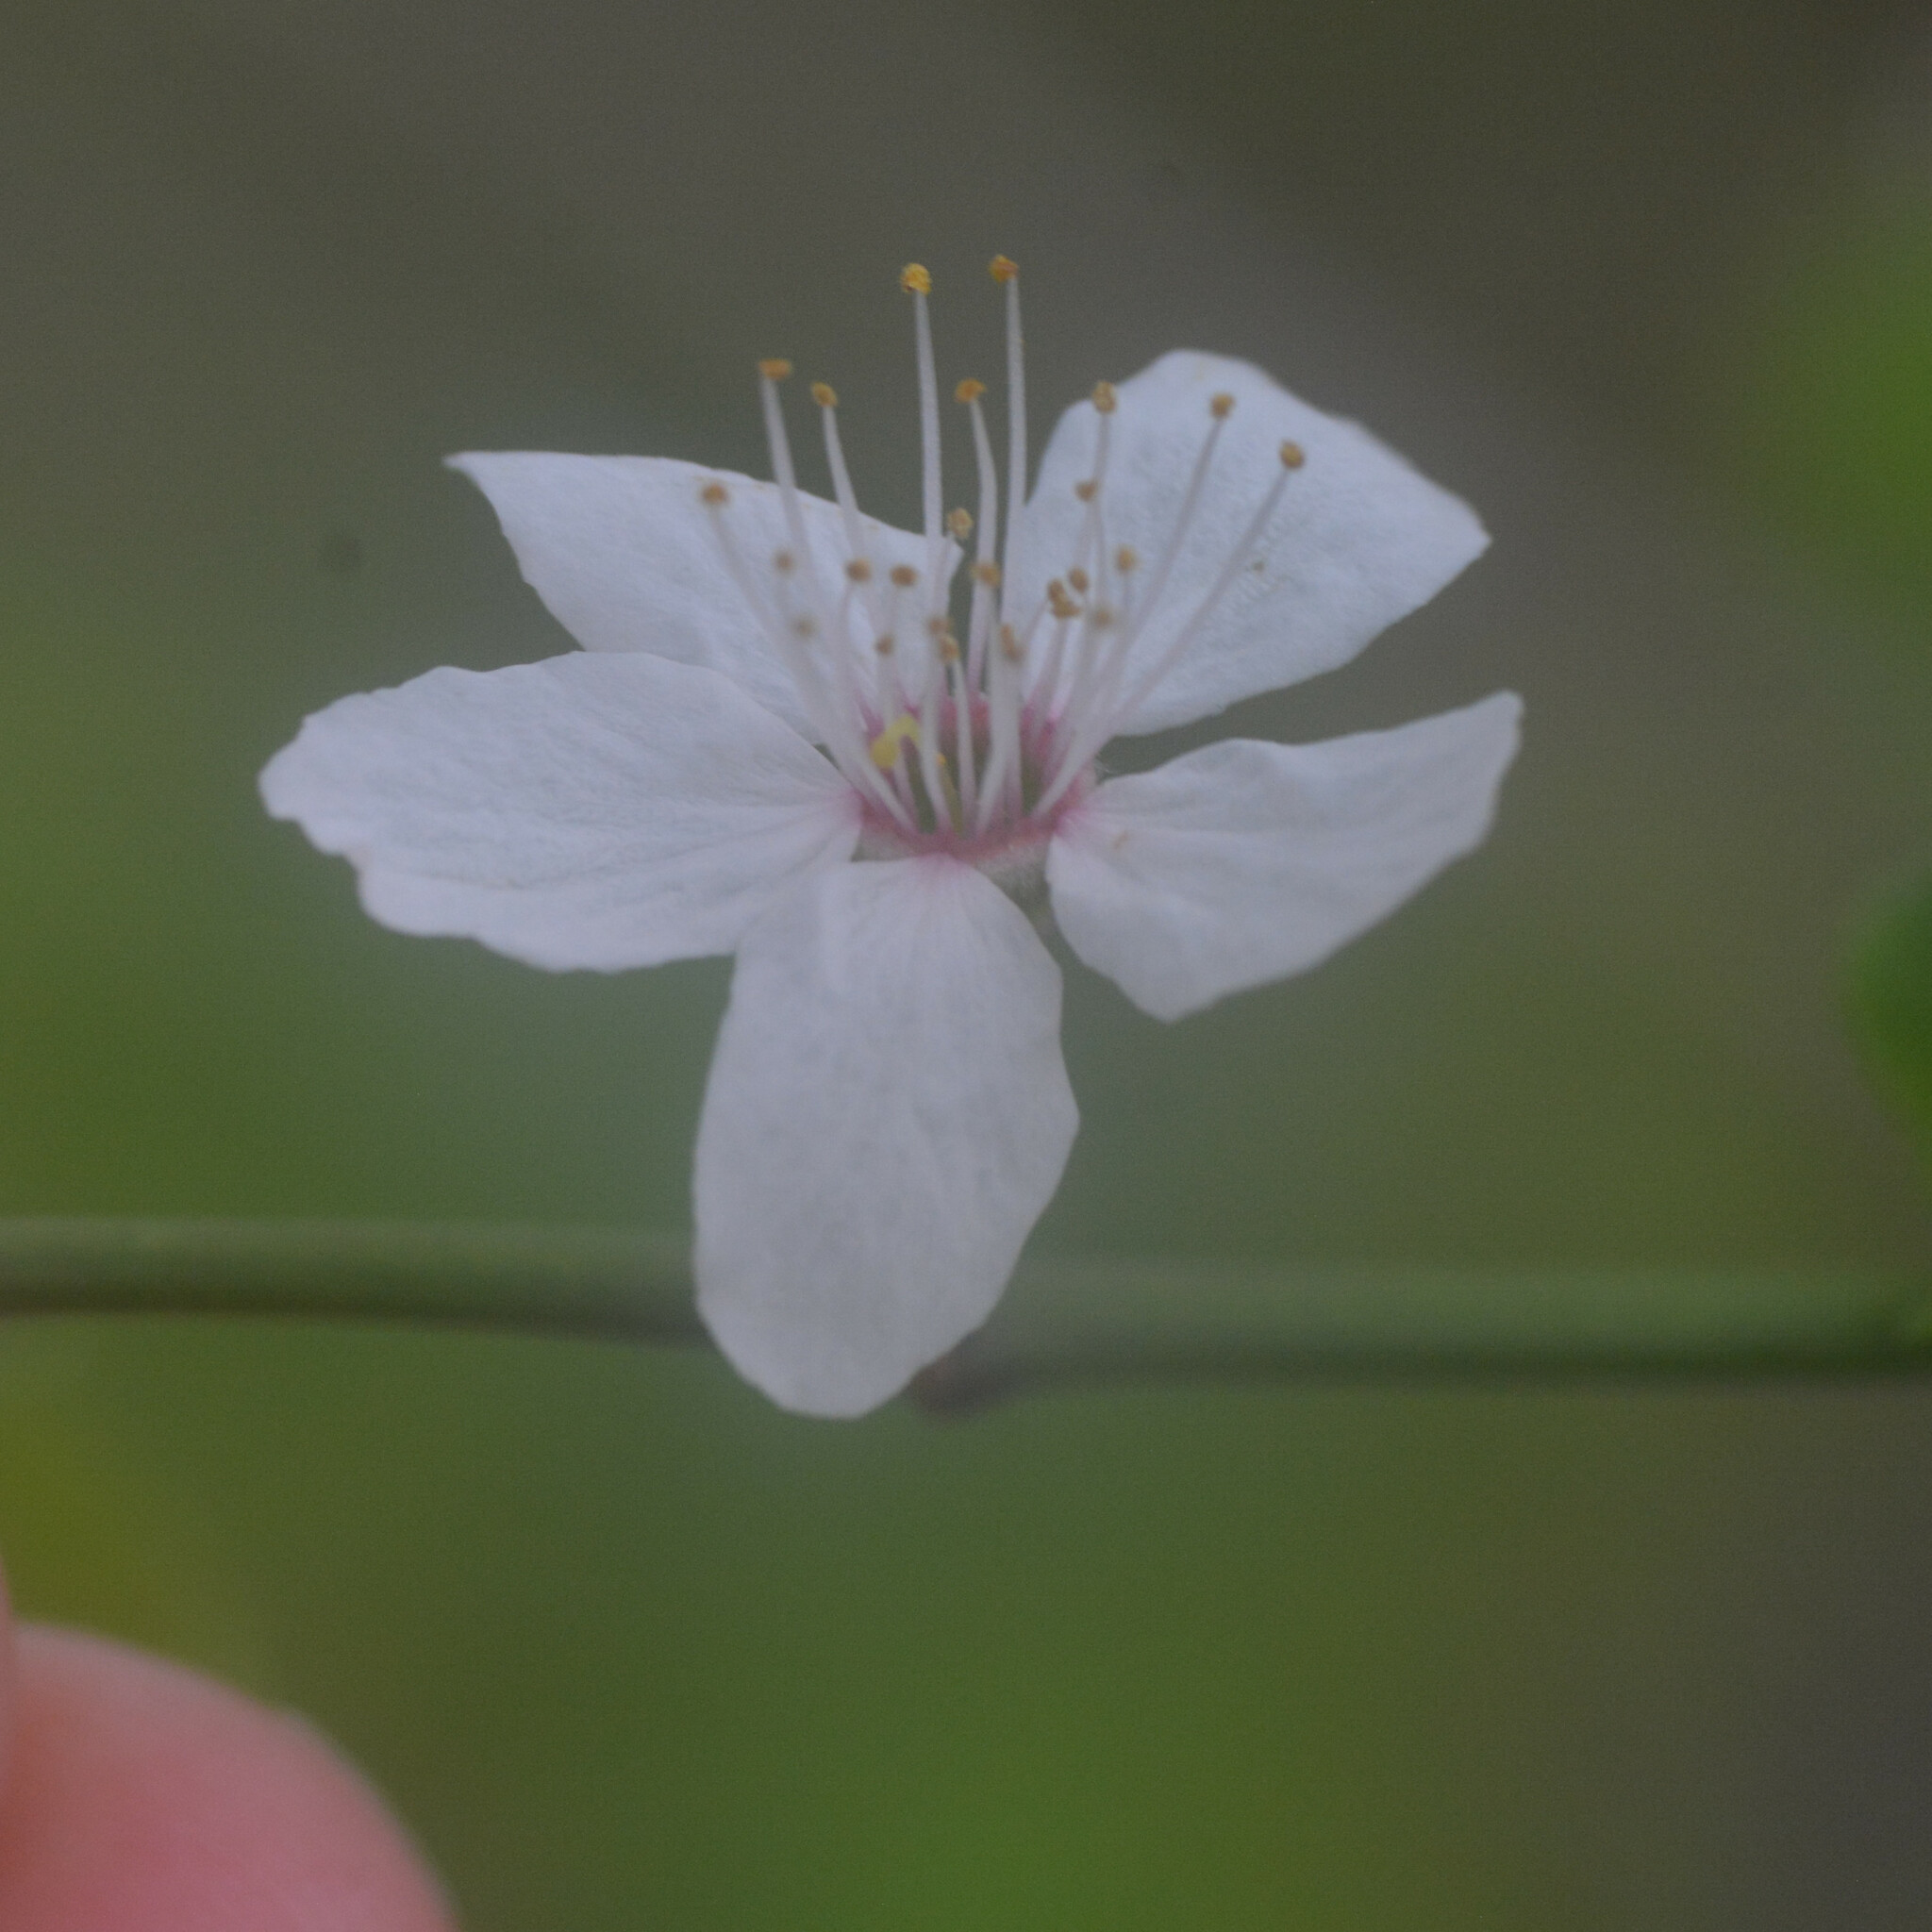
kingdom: Plantae
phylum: Tracheophyta
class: Magnoliopsida
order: Rosales
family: Rosaceae
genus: Prunus
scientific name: Prunus cerasifera
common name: Cherry plum
